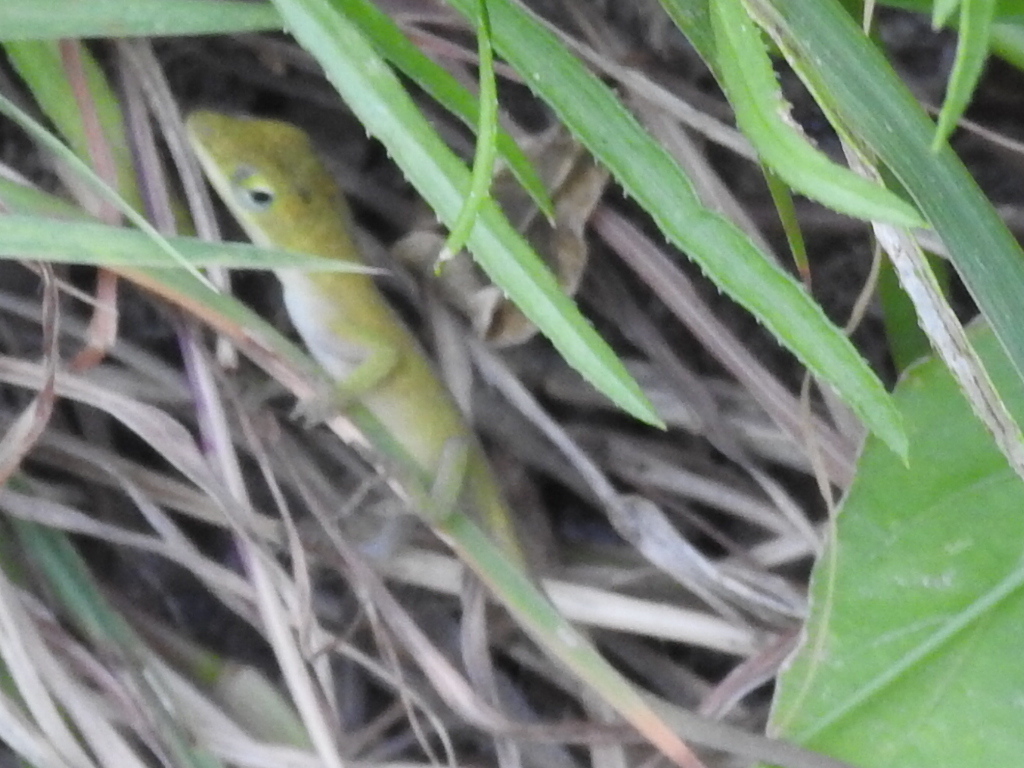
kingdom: Animalia
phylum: Chordata
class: Squamata
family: Dactyloidae
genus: Anolis
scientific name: Anolis carolinensis
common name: Green anole
